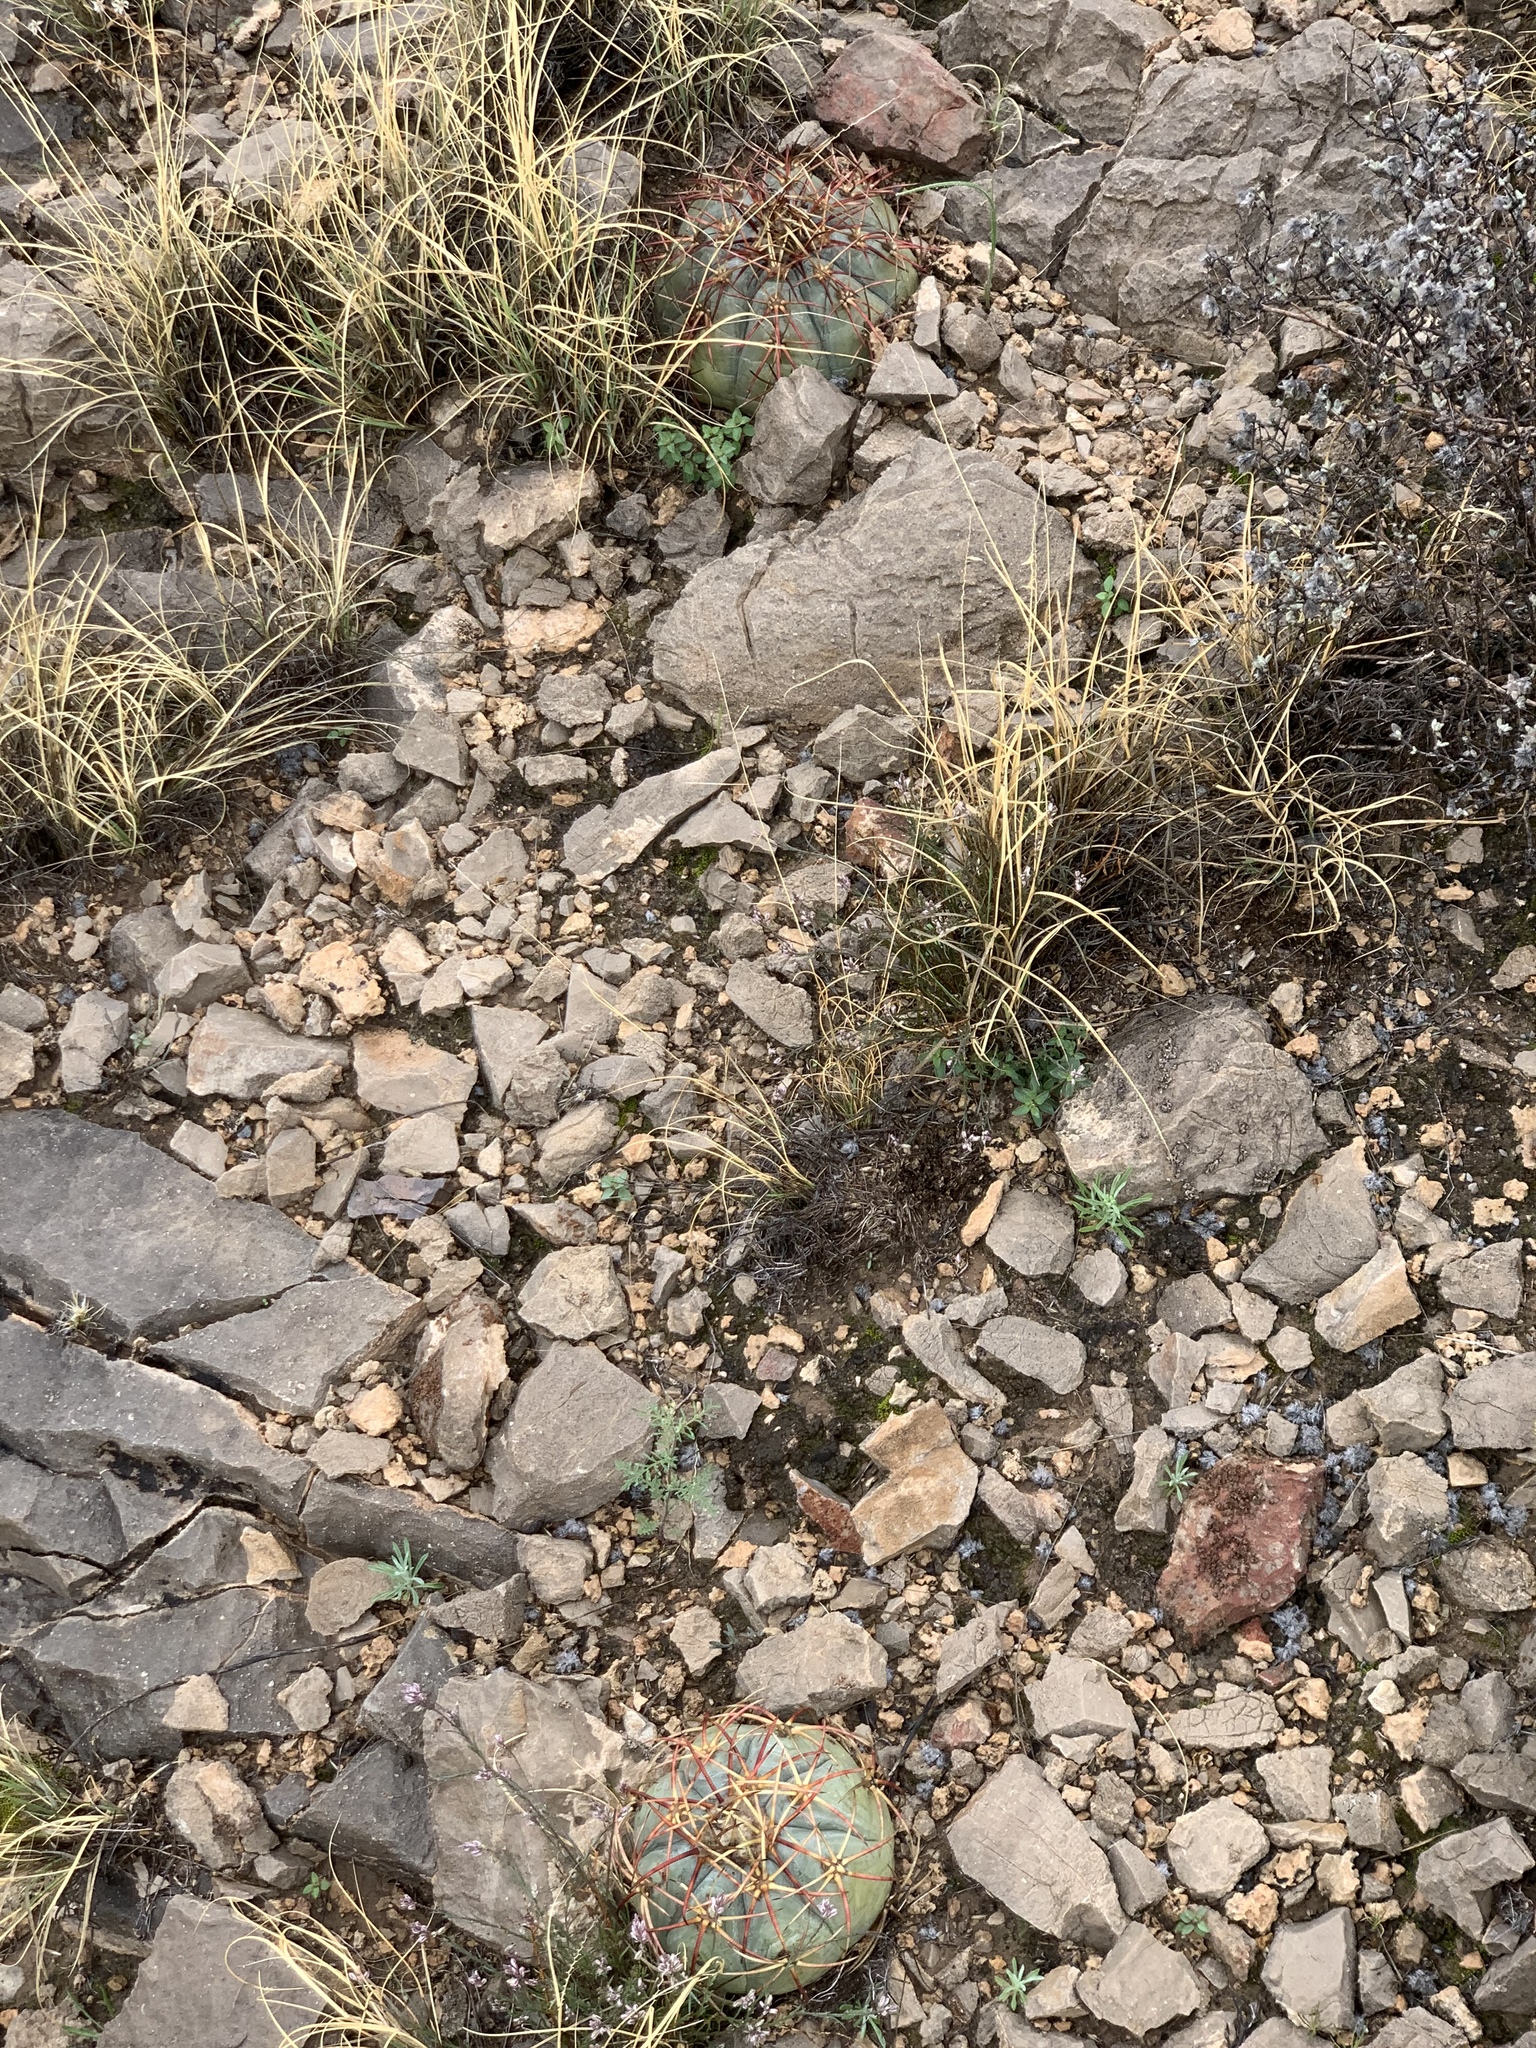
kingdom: Plantae
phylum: Tracheophyta
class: Magnoliopsida
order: Caryophyllales
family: Cactaceae
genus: Echinocactus
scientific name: Echinocactus horizonthalonius
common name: Devilshead
